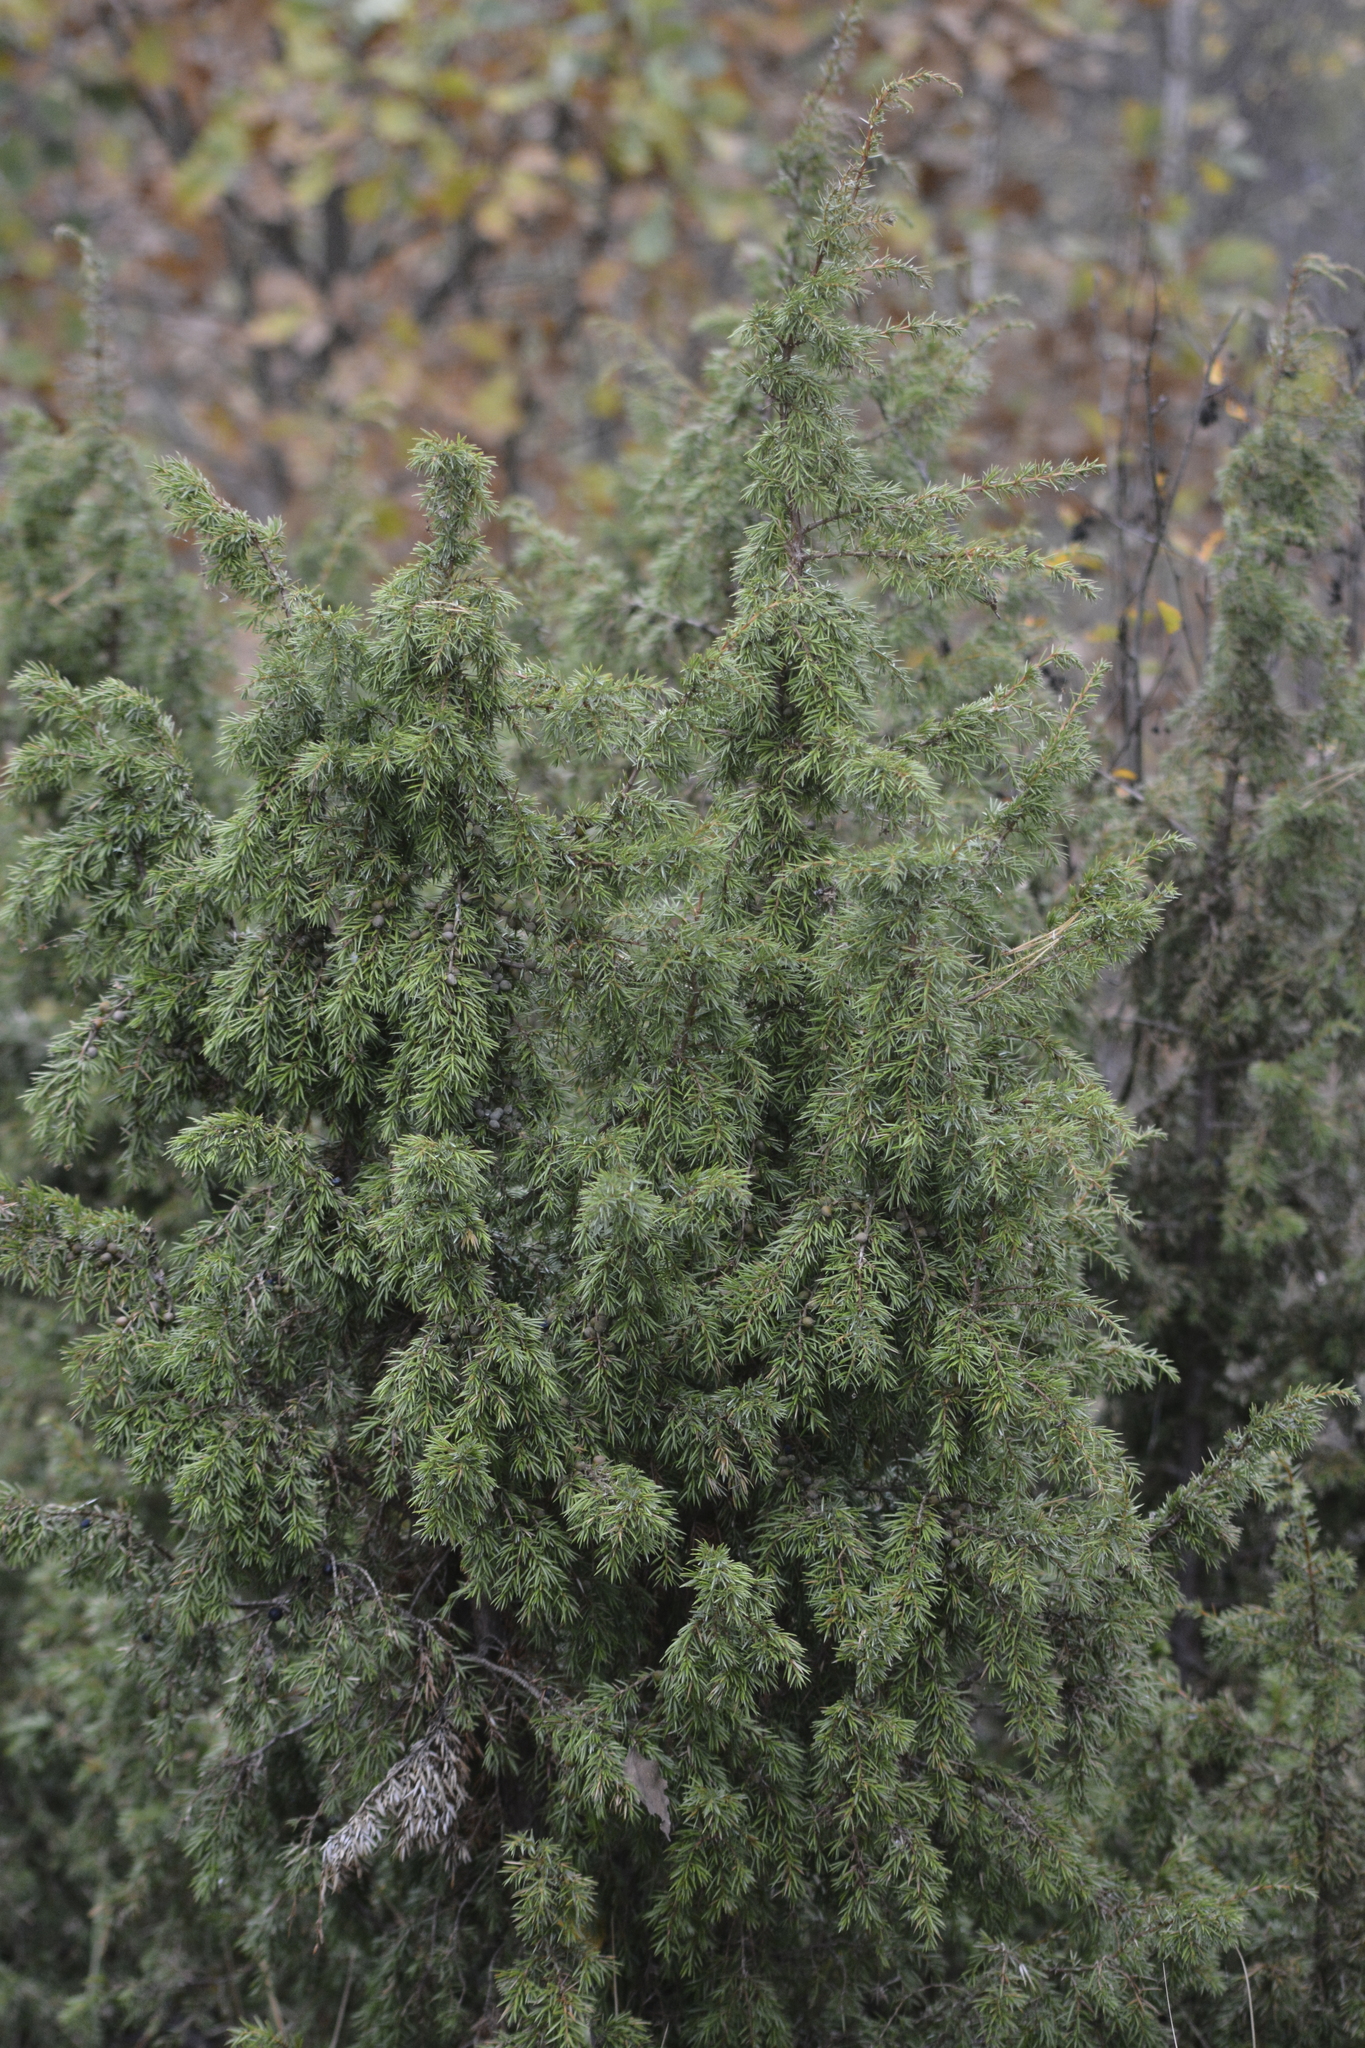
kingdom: Plantae
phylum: Tracheophyta
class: Pinopsida
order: Pinales
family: Cupressaceae
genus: Juniperus
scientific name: Juniperus communis
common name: Common juniper
